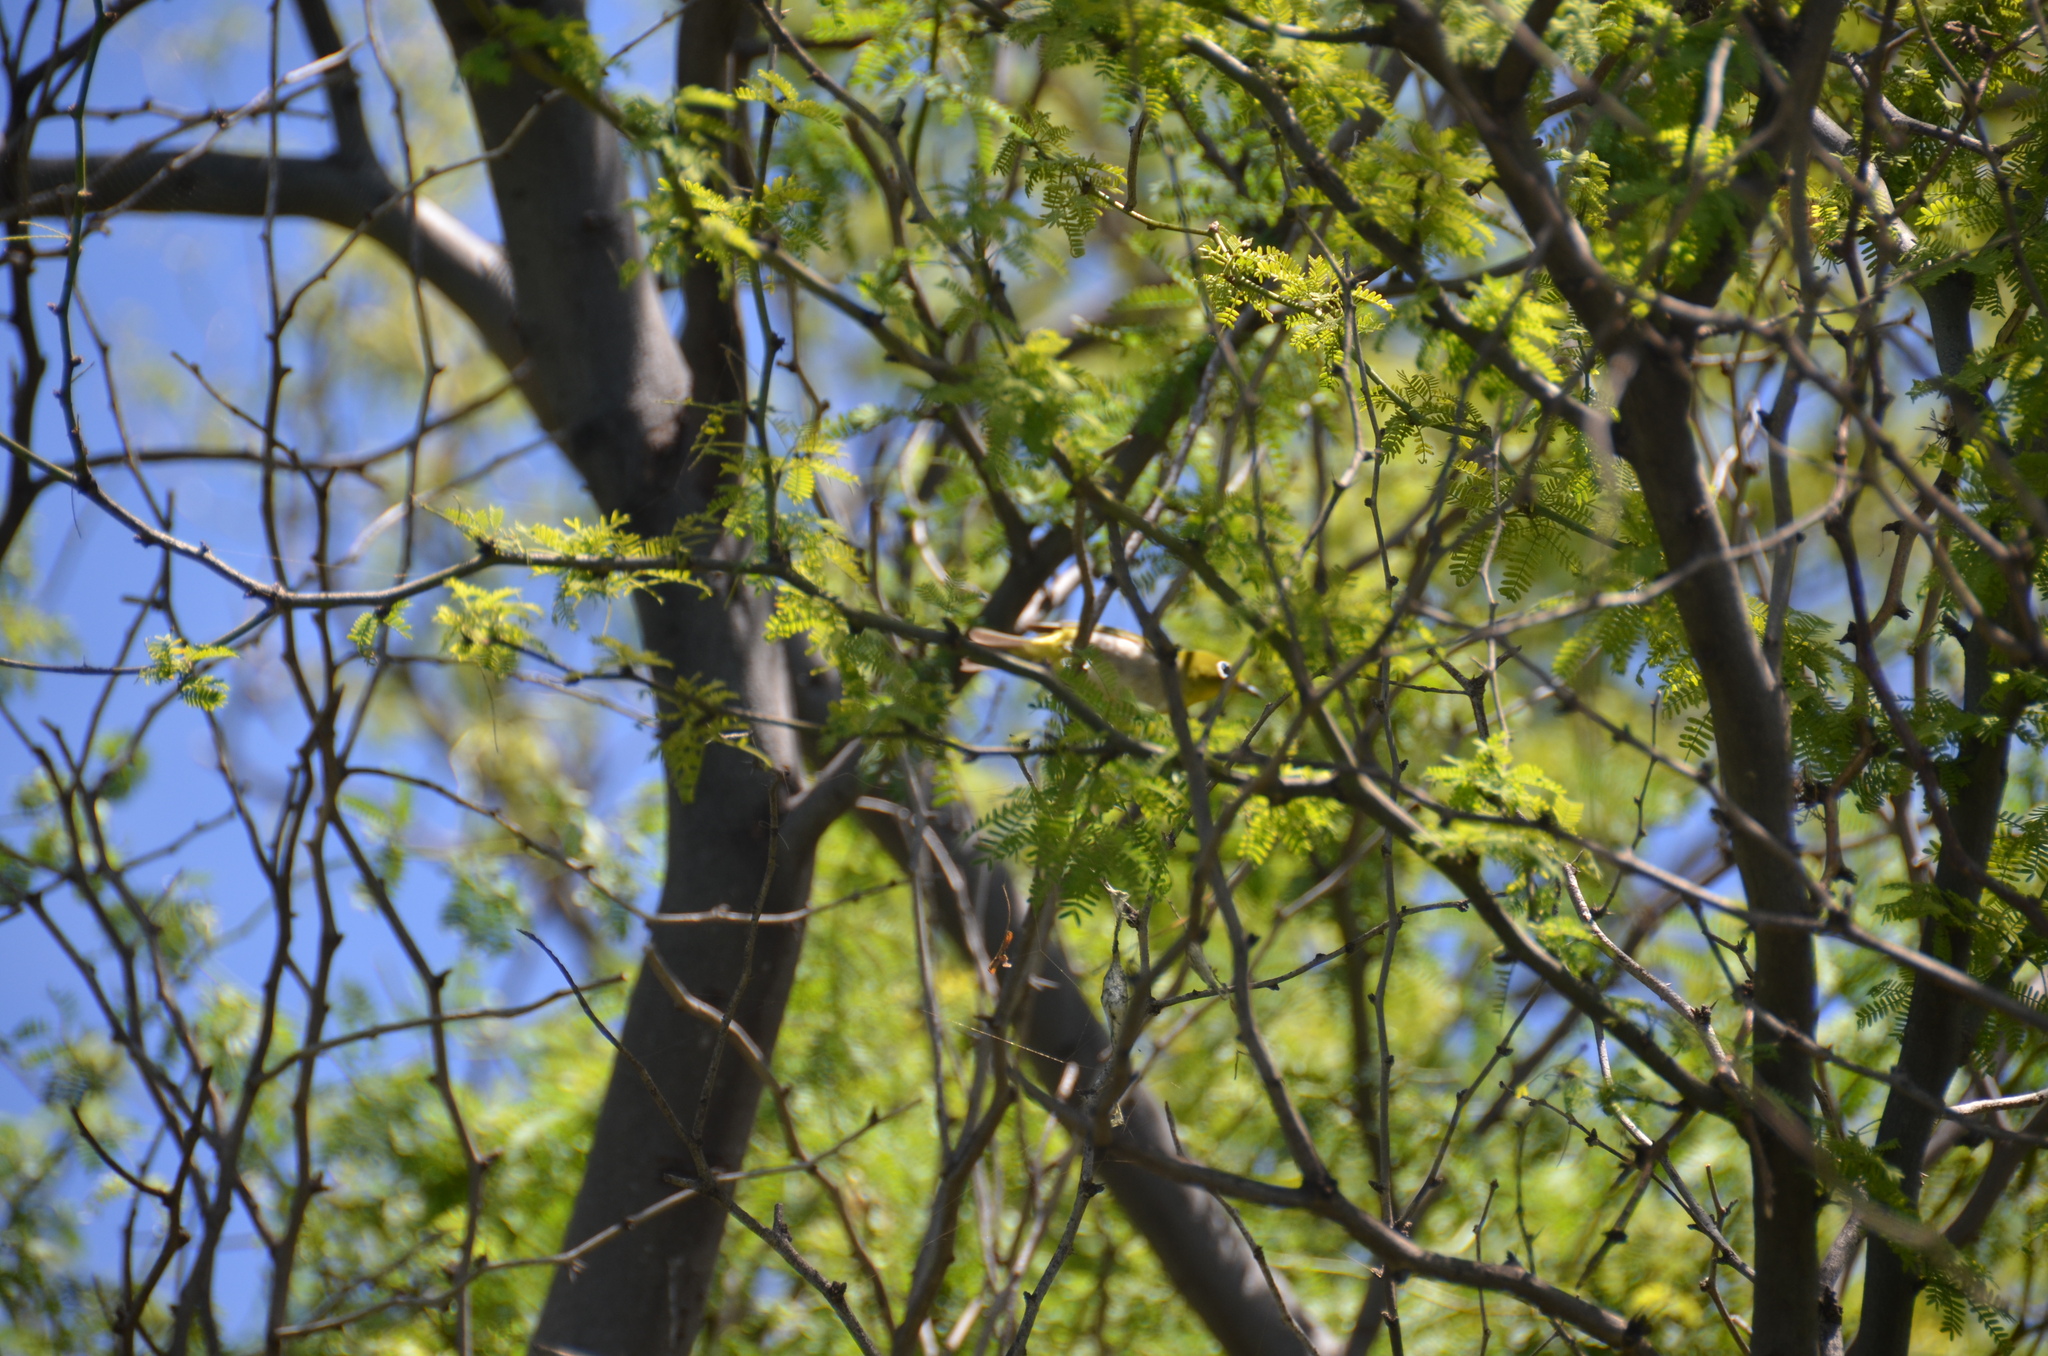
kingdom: Animalia
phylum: Chordata
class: Aves
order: Passeriformes
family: Zosteropidae
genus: Zosterops
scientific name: Zosterops japonicus
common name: Japanese white-eye
